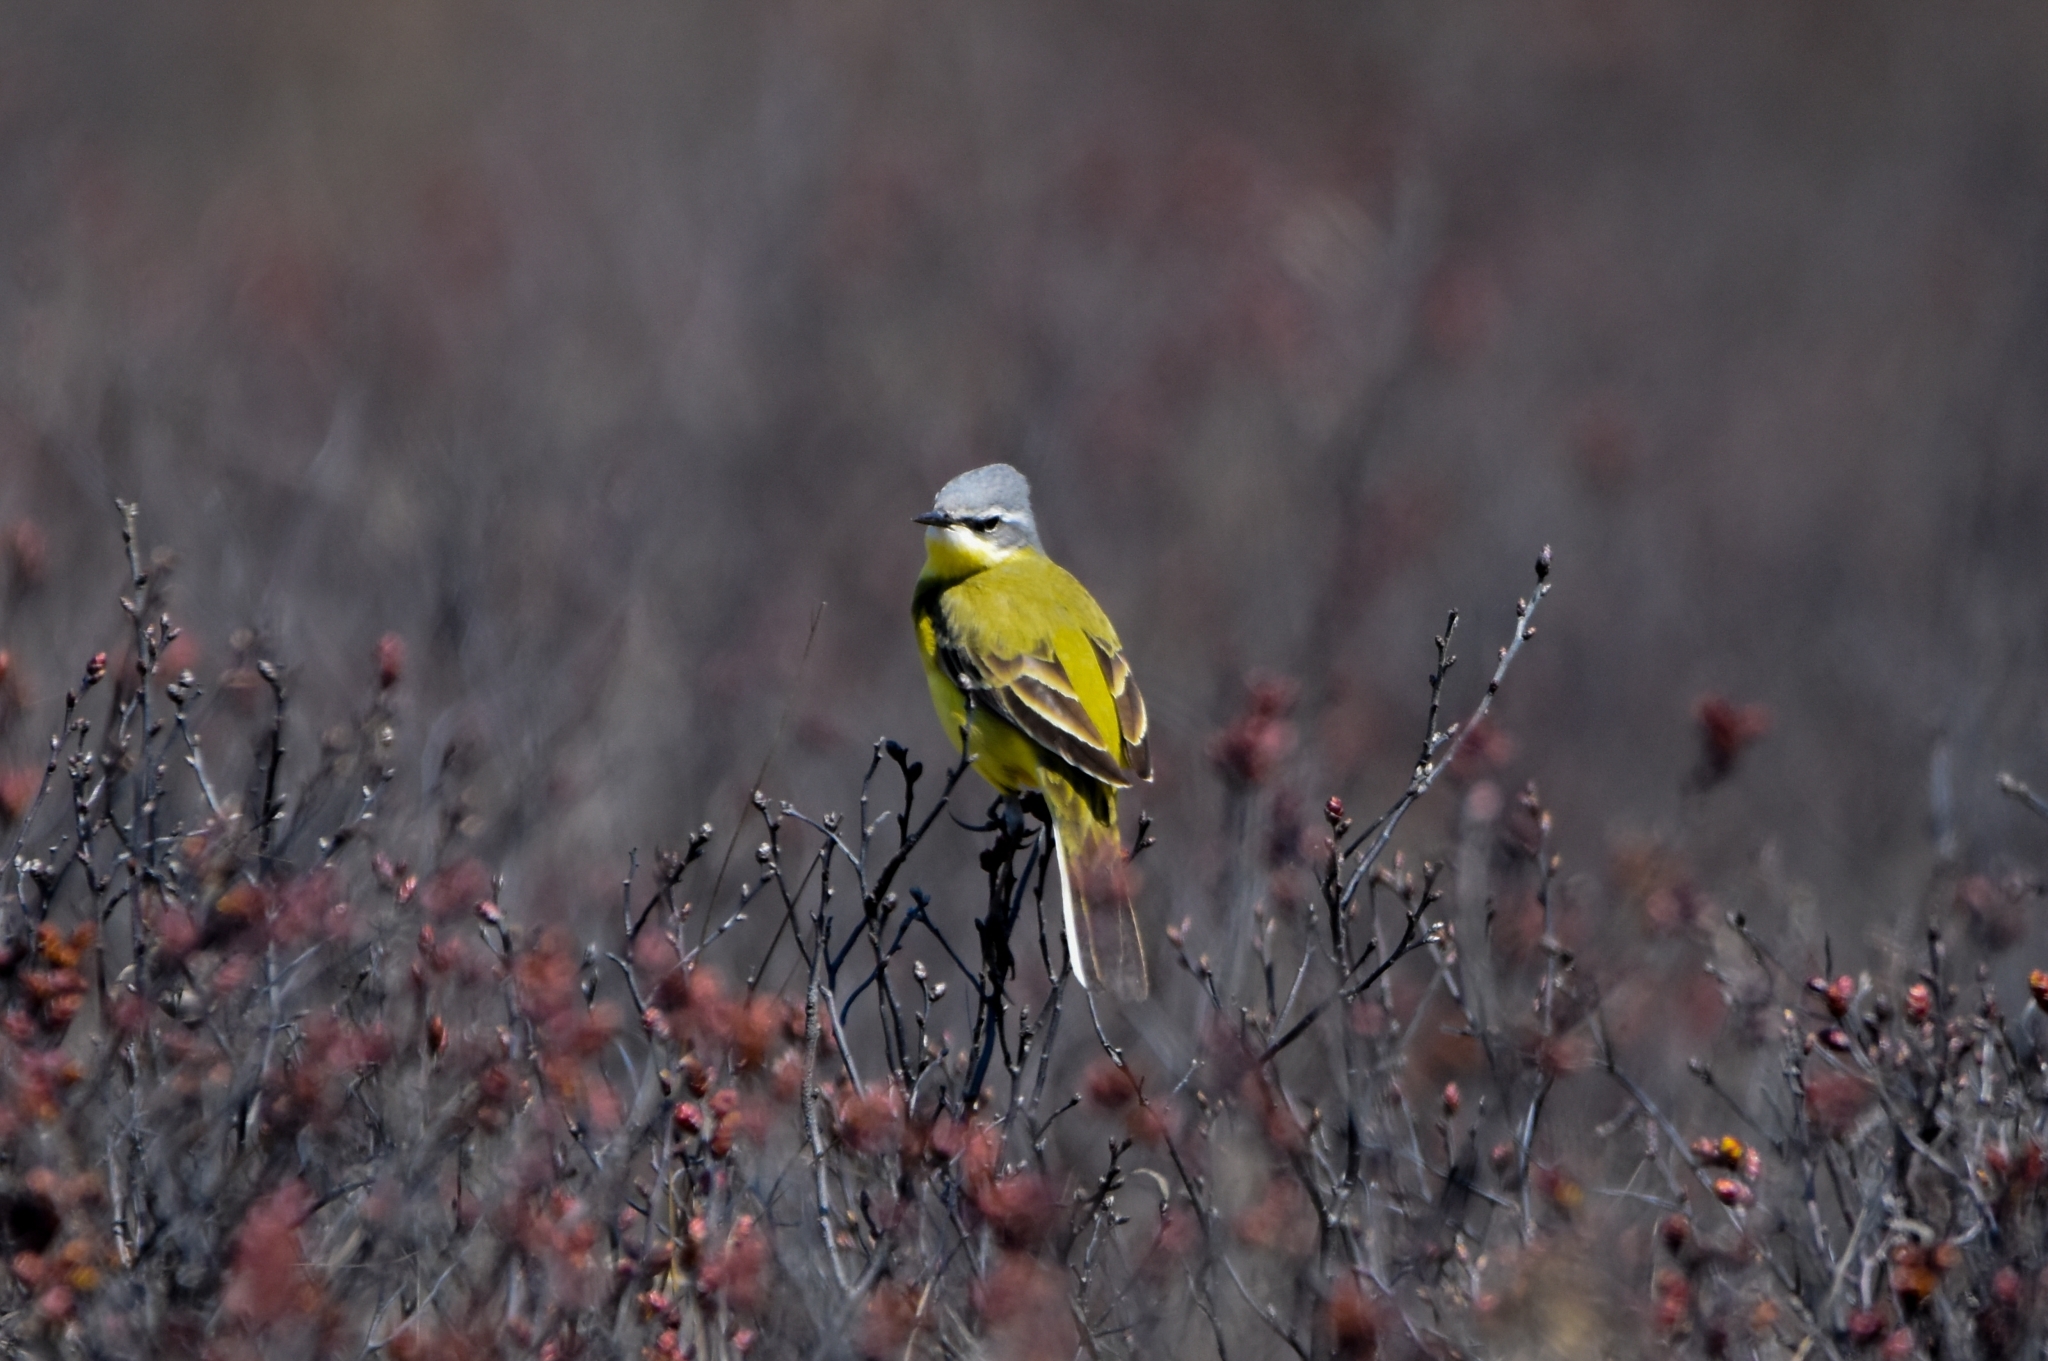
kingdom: Animalia
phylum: Chordata
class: Aves
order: Passeriformes
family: Motacillidae
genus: Motacilla
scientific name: Motacilla tschutschensis
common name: Eastern yellow wagtail
